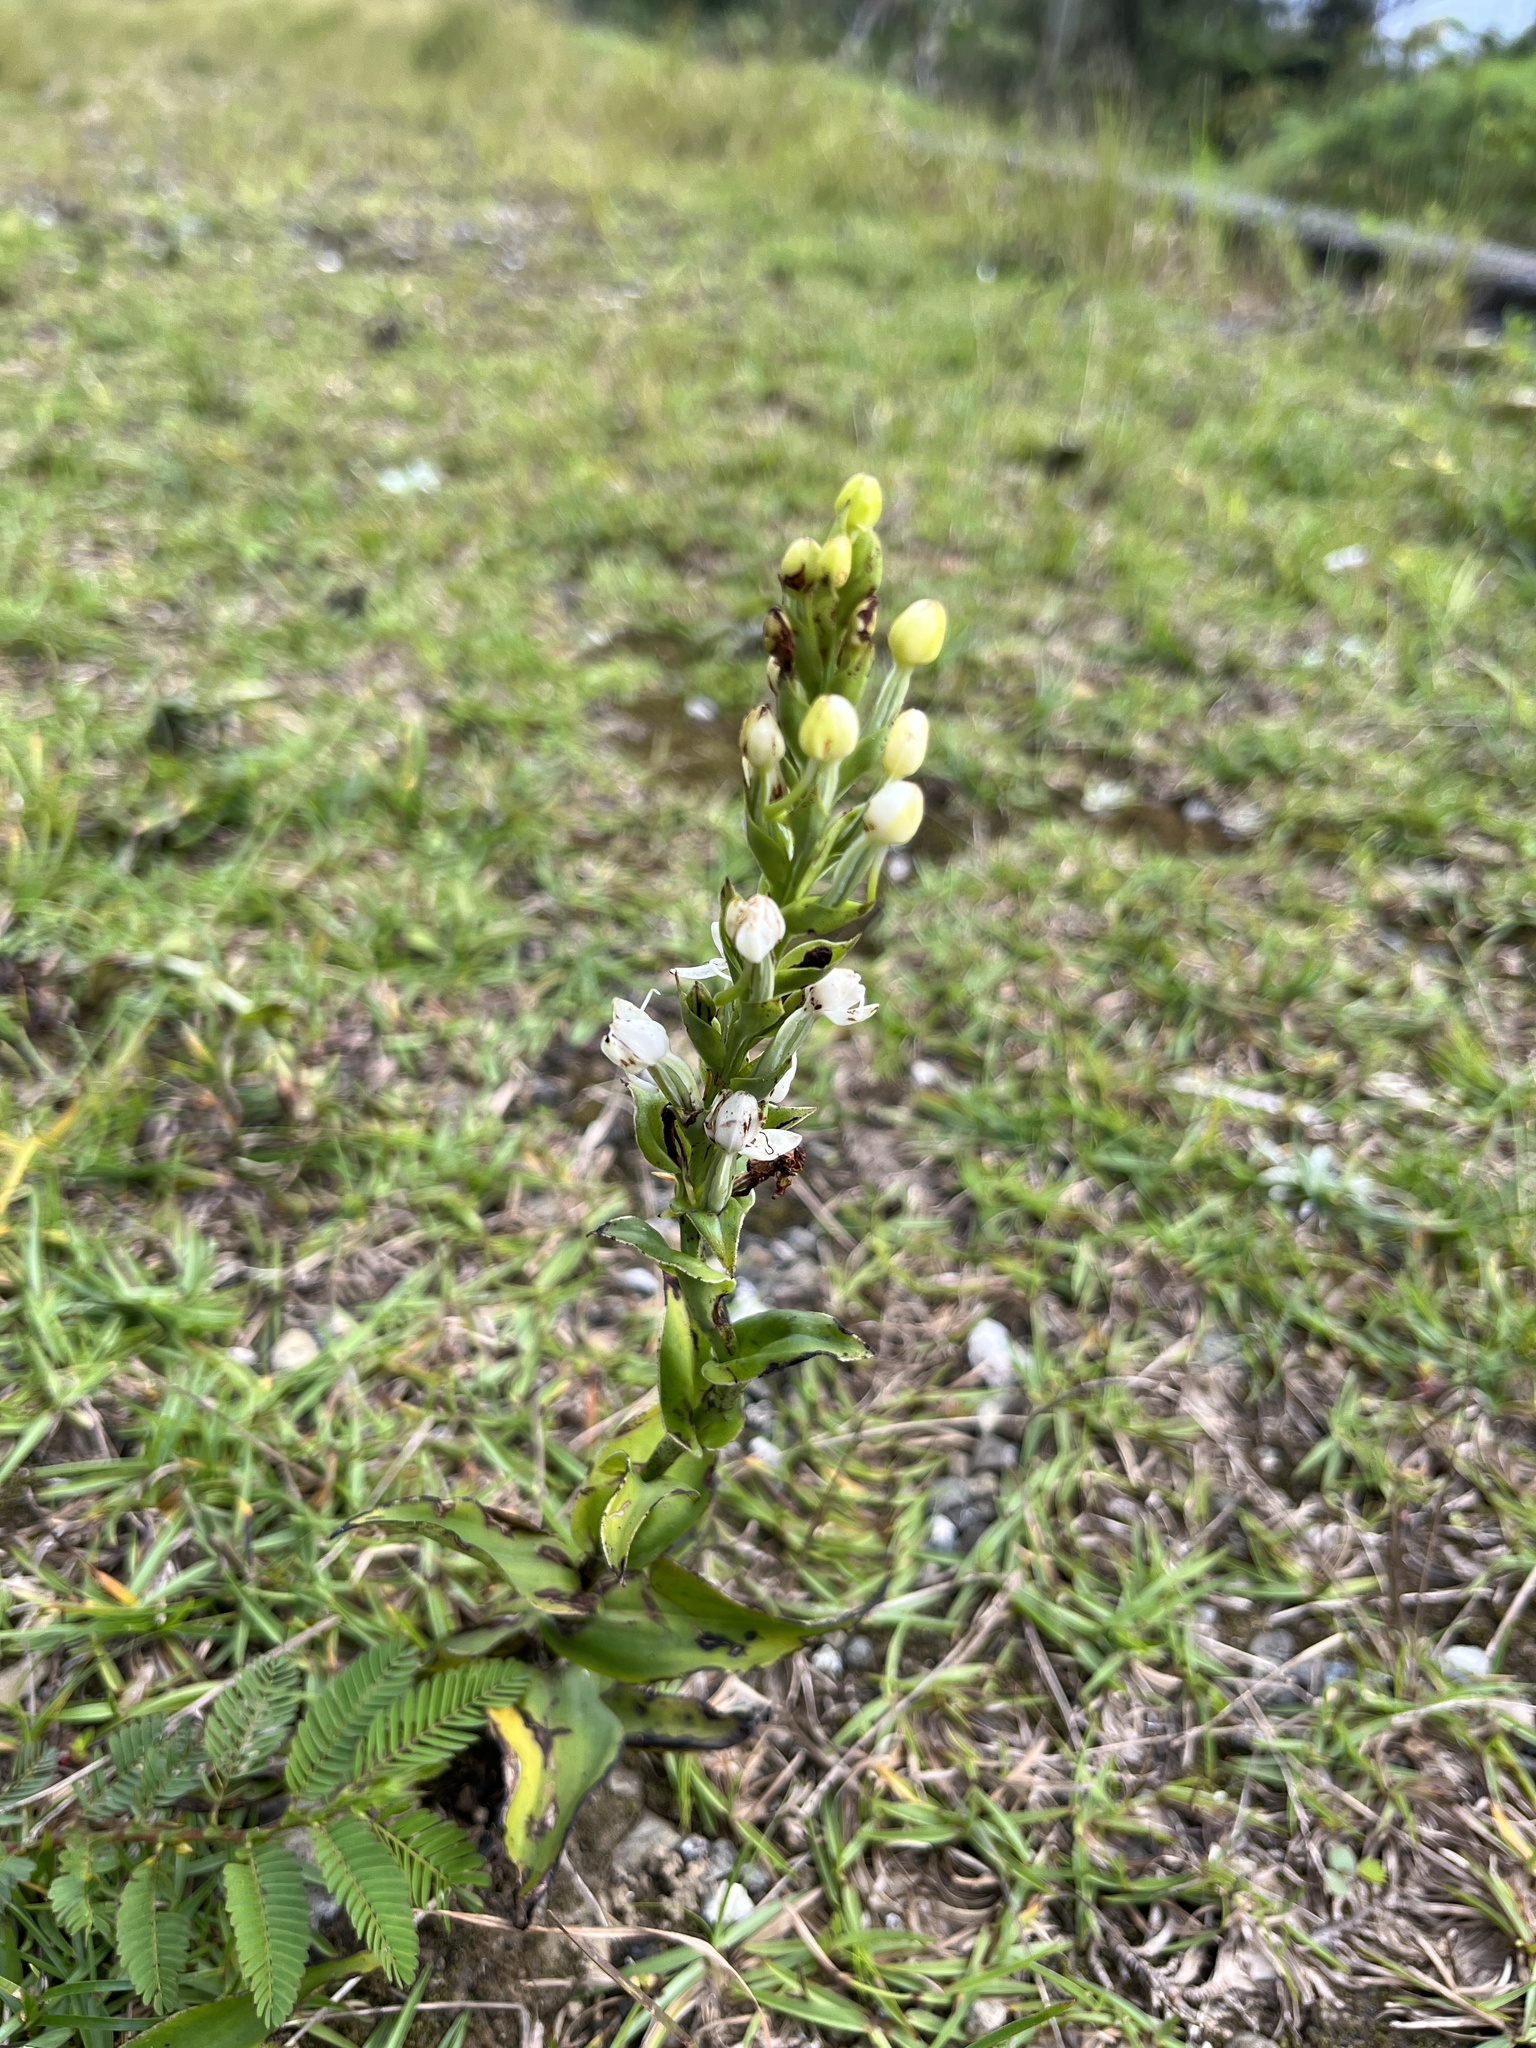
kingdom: Plantae
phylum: Tracheophyta
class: Liliopsida
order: Asparagales
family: Orchidaceae
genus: Habenaria
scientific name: Habenaria monorrhiza
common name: Tropical bog orchid
